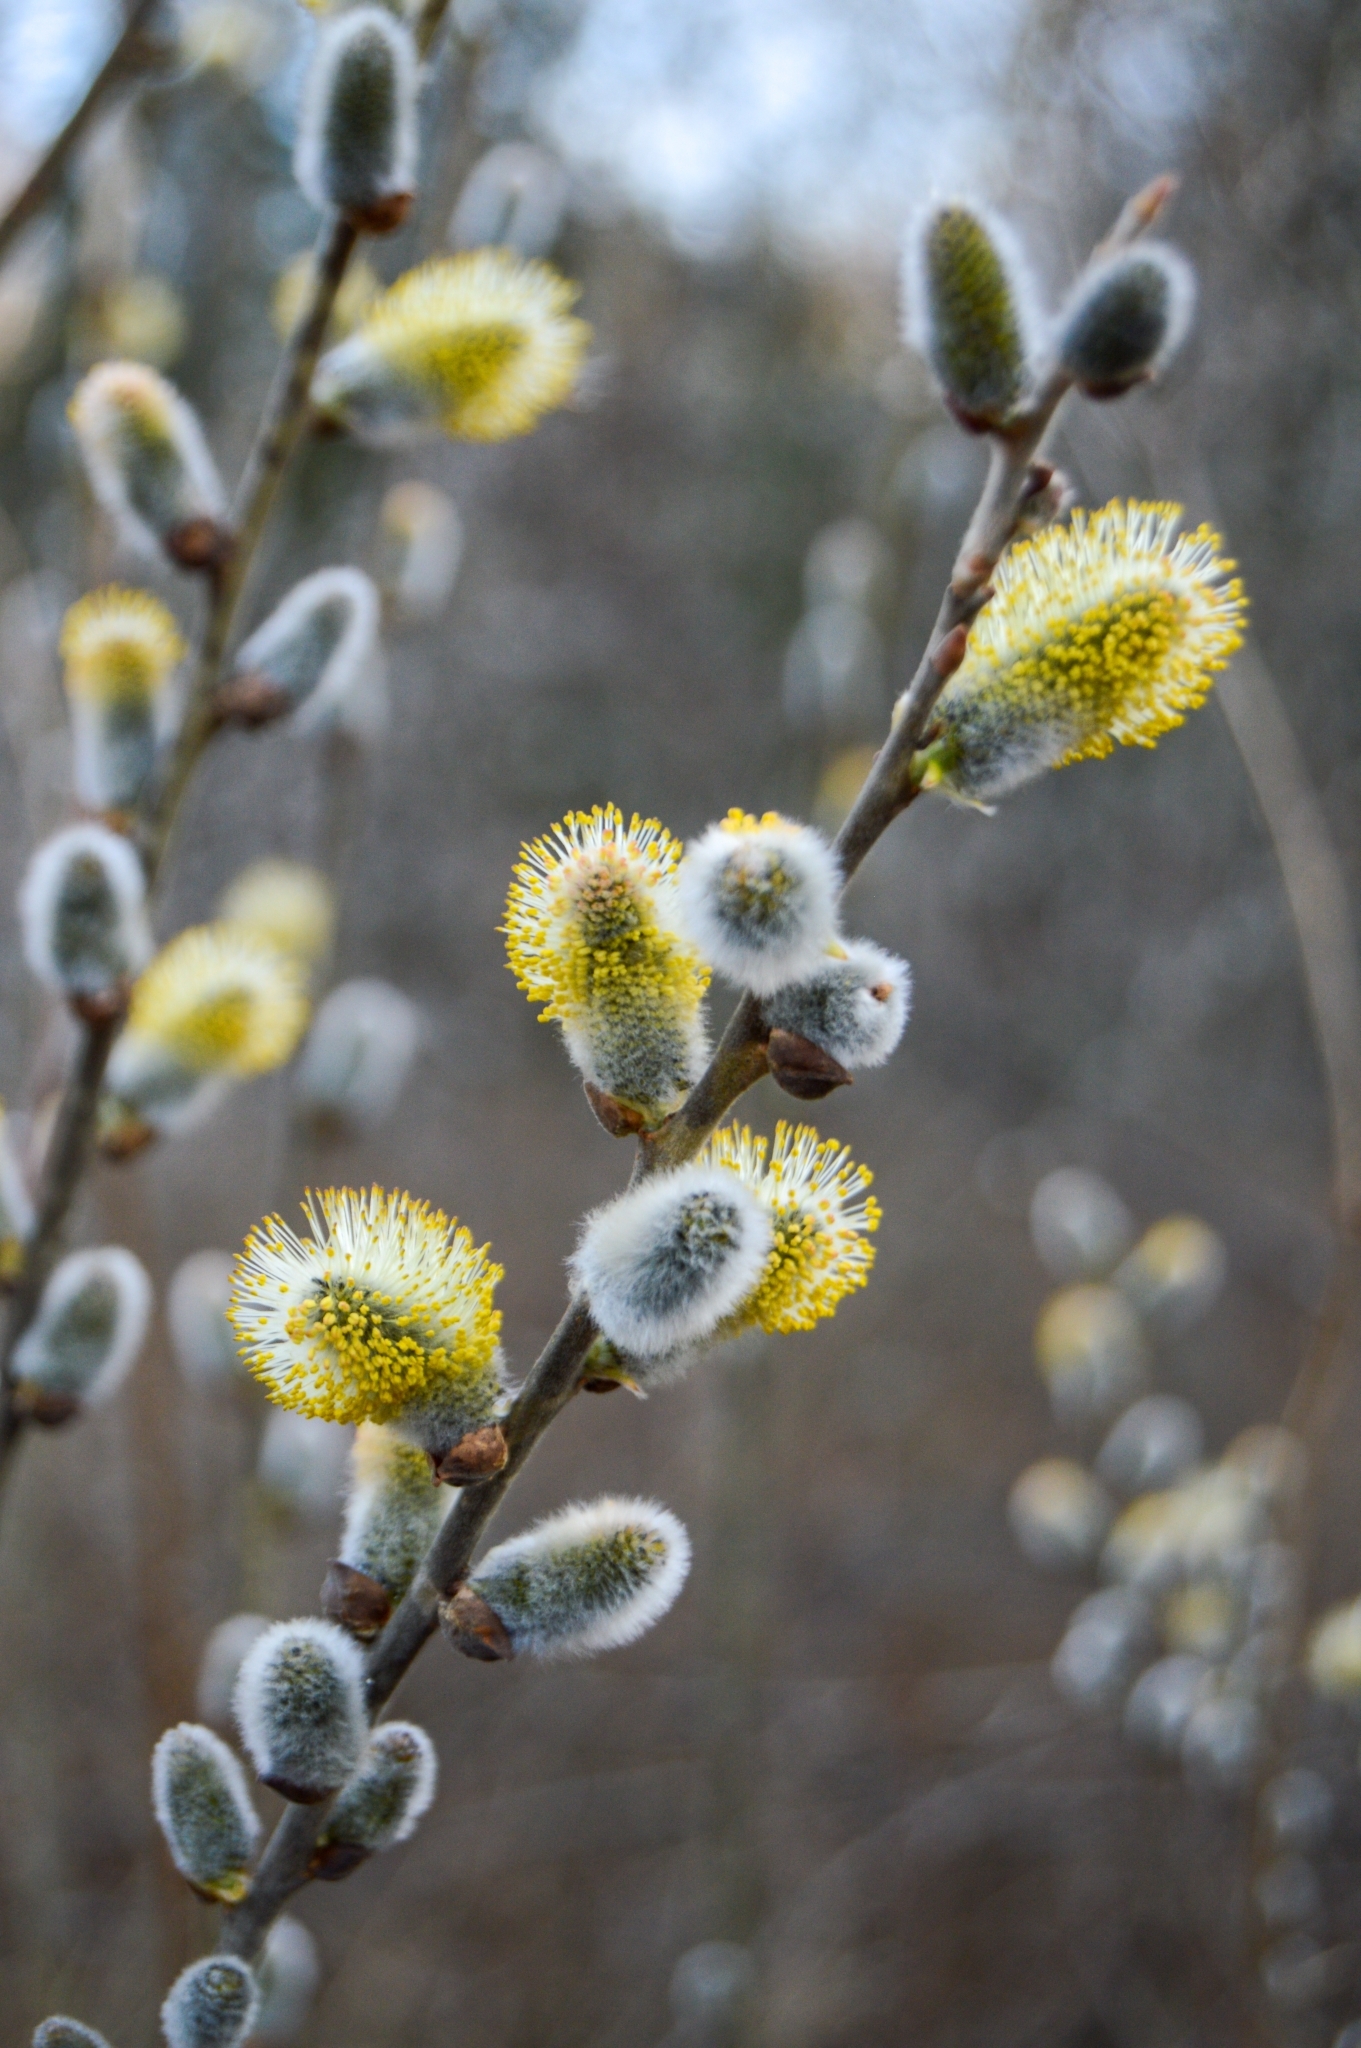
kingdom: Plantae
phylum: Tracheophyta
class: Magnoliopsida
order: Malpighiales
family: Salicaceae
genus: Salix
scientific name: Salix caprea
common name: Goat willow
